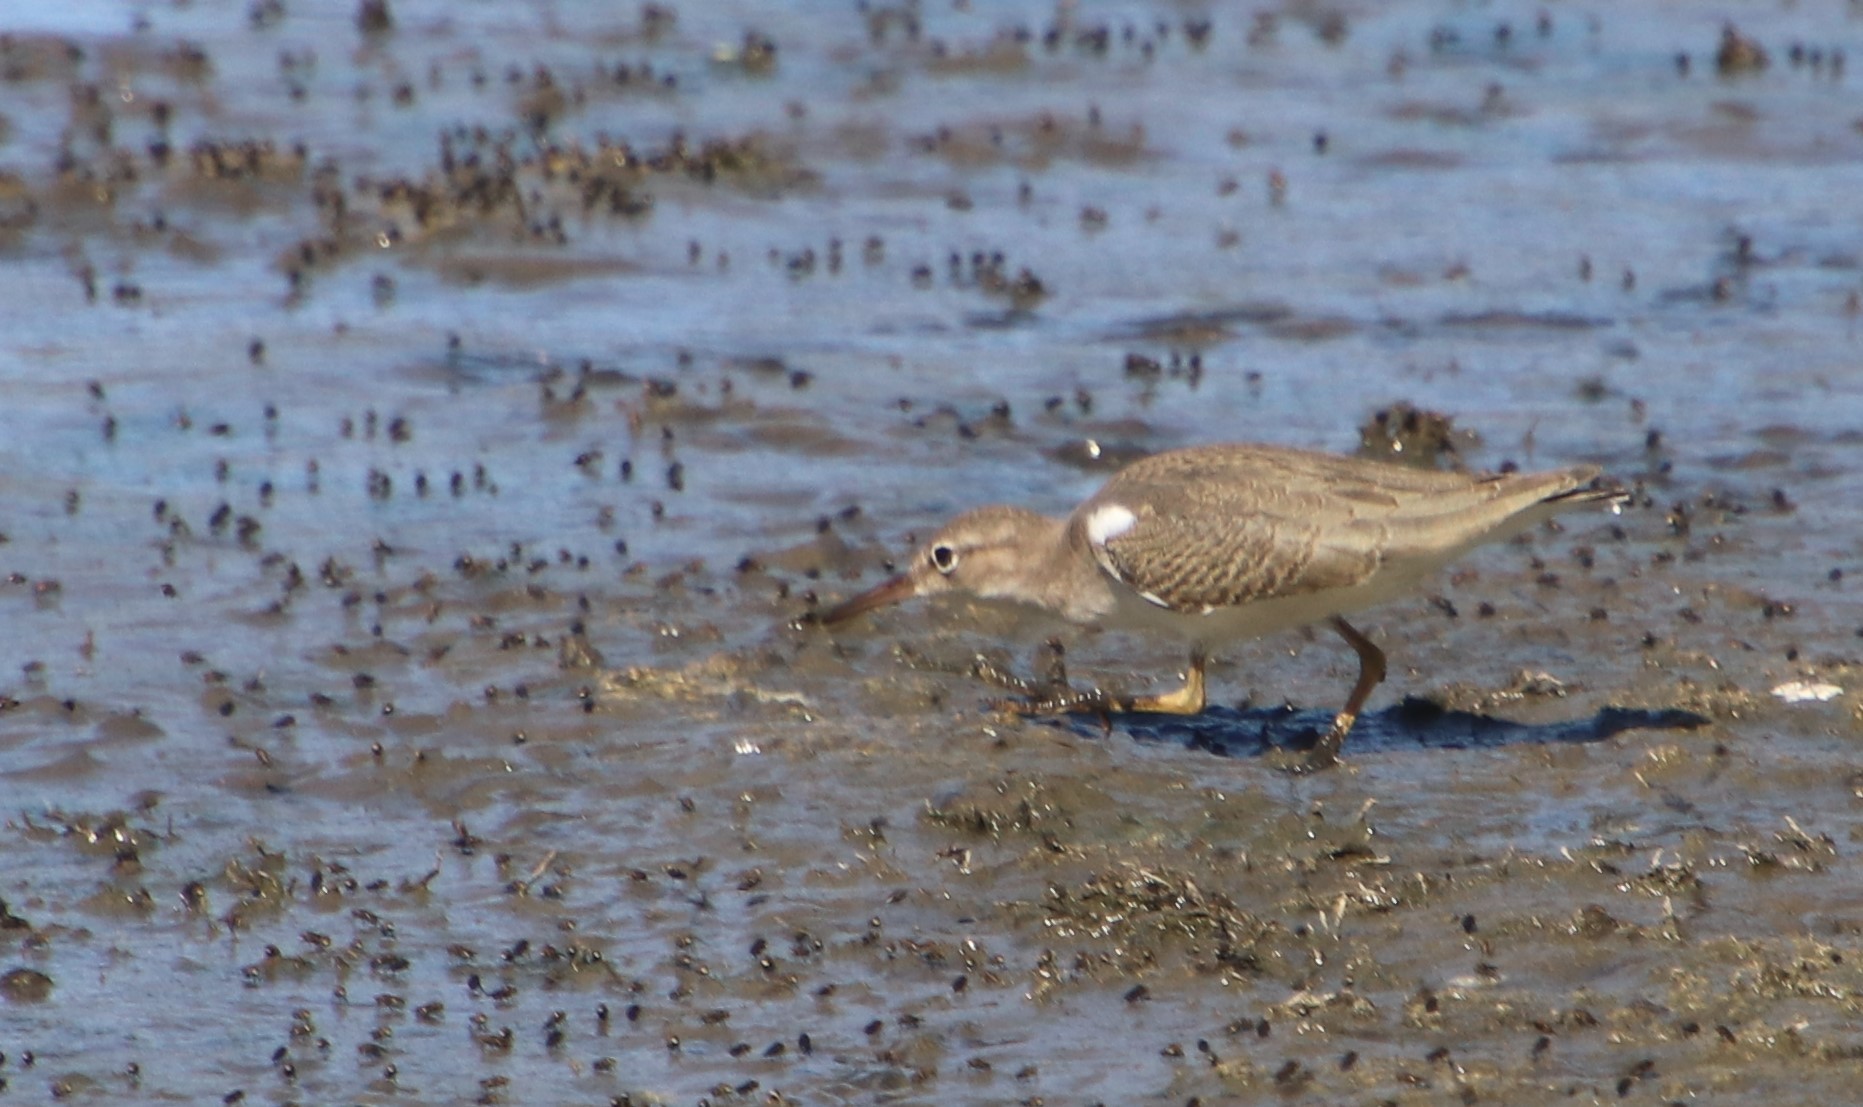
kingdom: Animalia
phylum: Chordata
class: Aves
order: Charadriiformes
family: Scolopacidae
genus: Actitis
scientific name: Actitis macularius
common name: Spotted sandpiper
